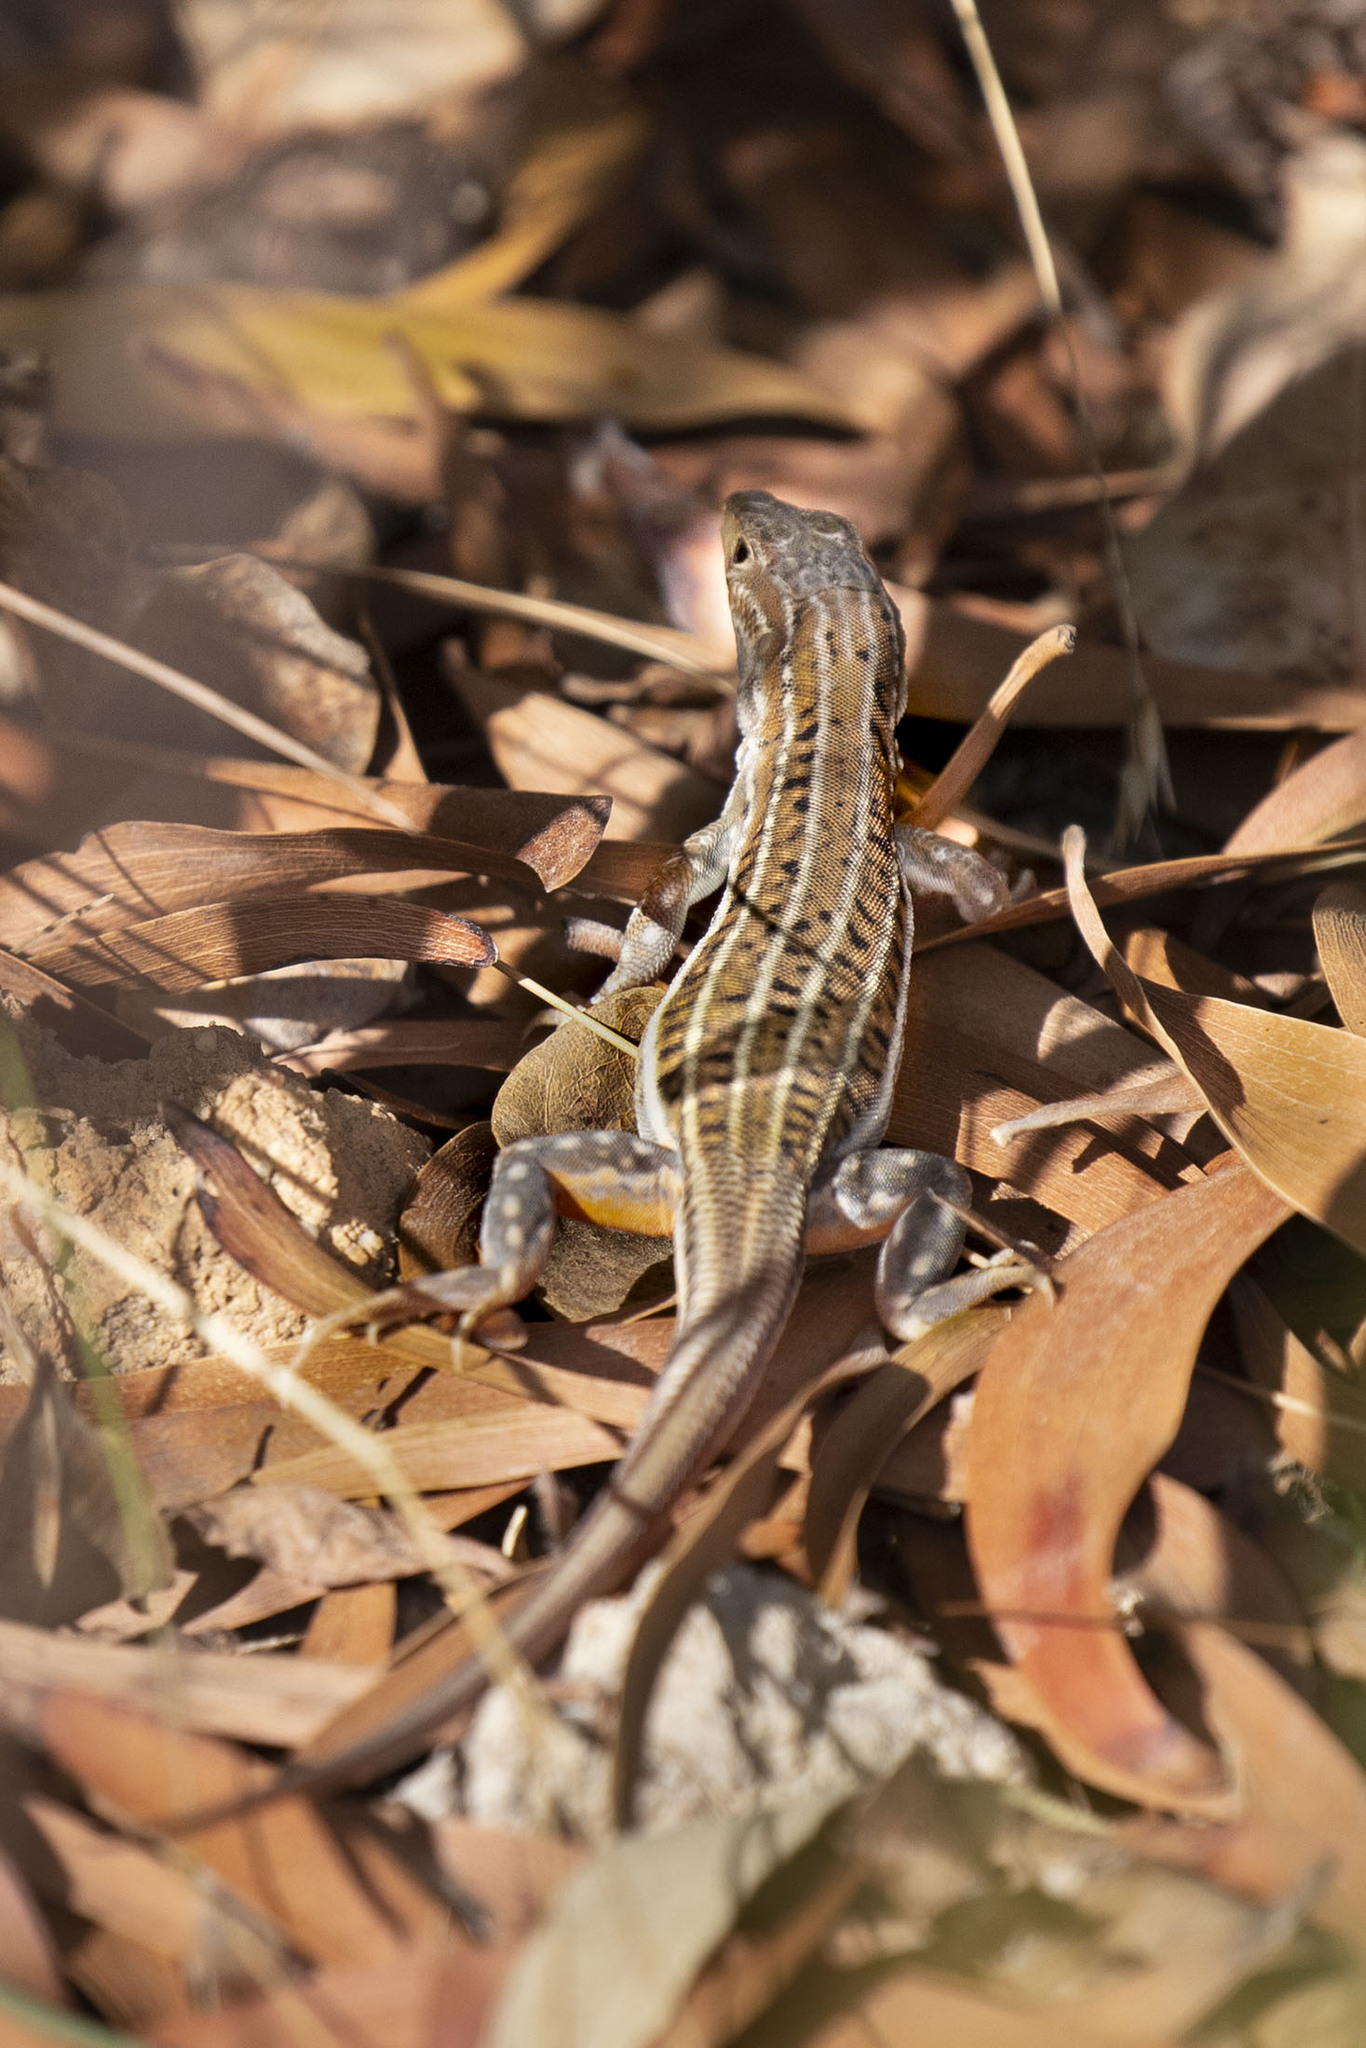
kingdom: Animalia
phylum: Chordata
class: Squamata
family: Lacertidae
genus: Acanthodactylus
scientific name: Acanthodactylus erythrurus
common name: Spiny-footed lizard
